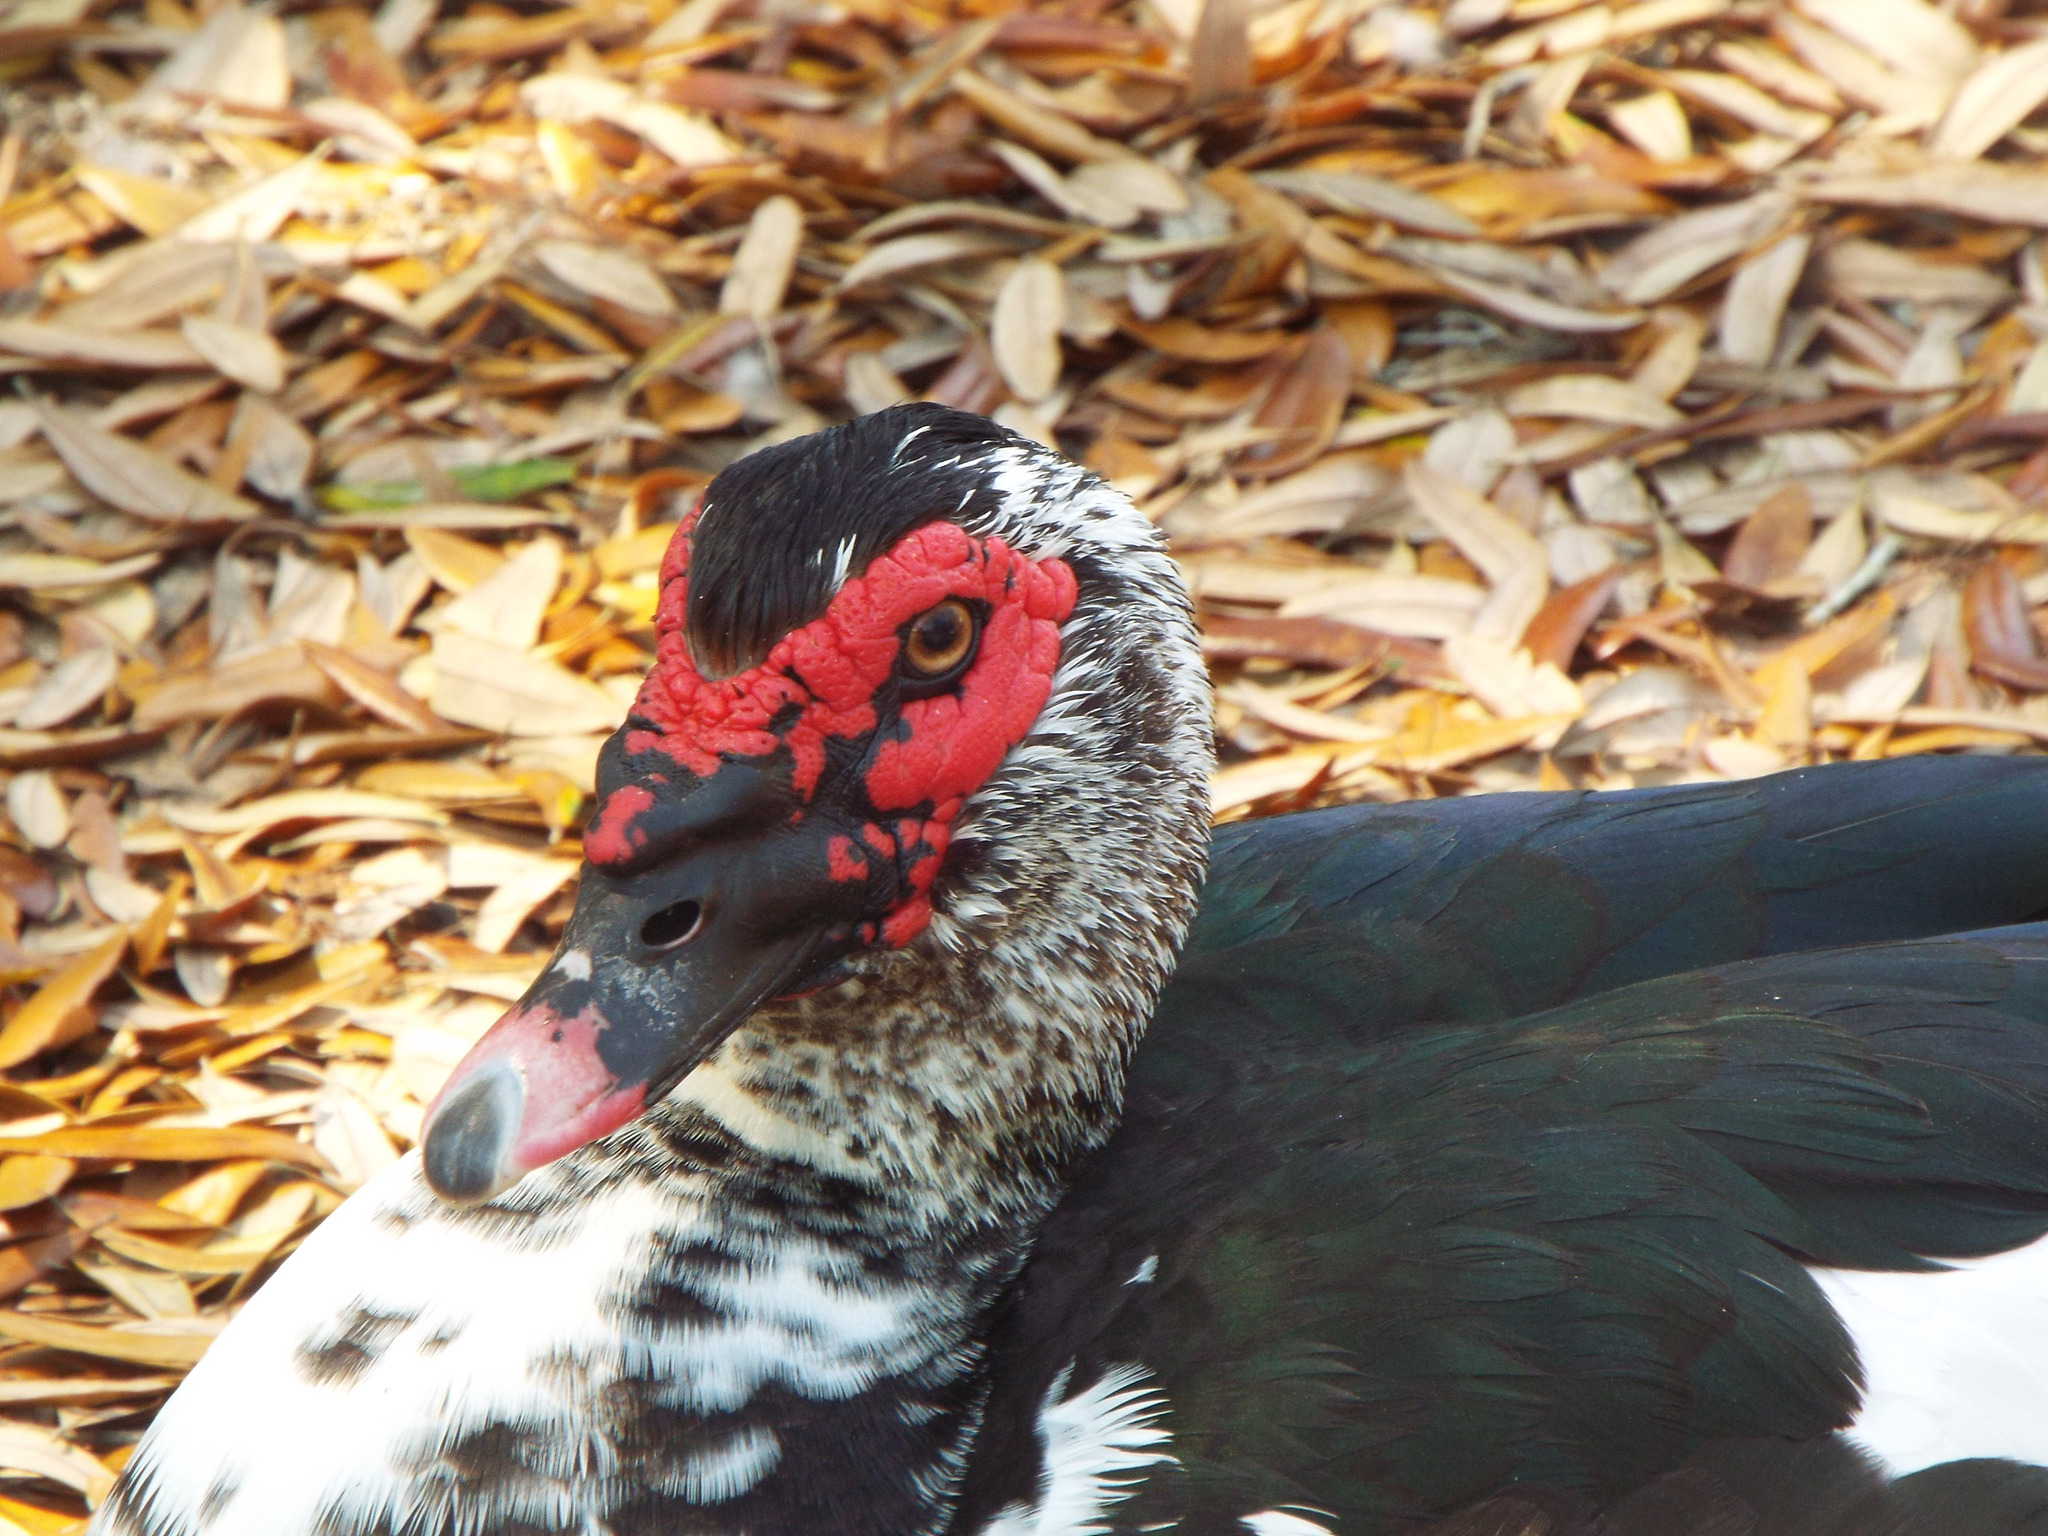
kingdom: Animalia
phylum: Chordata
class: Aves
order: Anseriformes
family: Anatidae
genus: Cairina
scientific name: Cairina moschata
